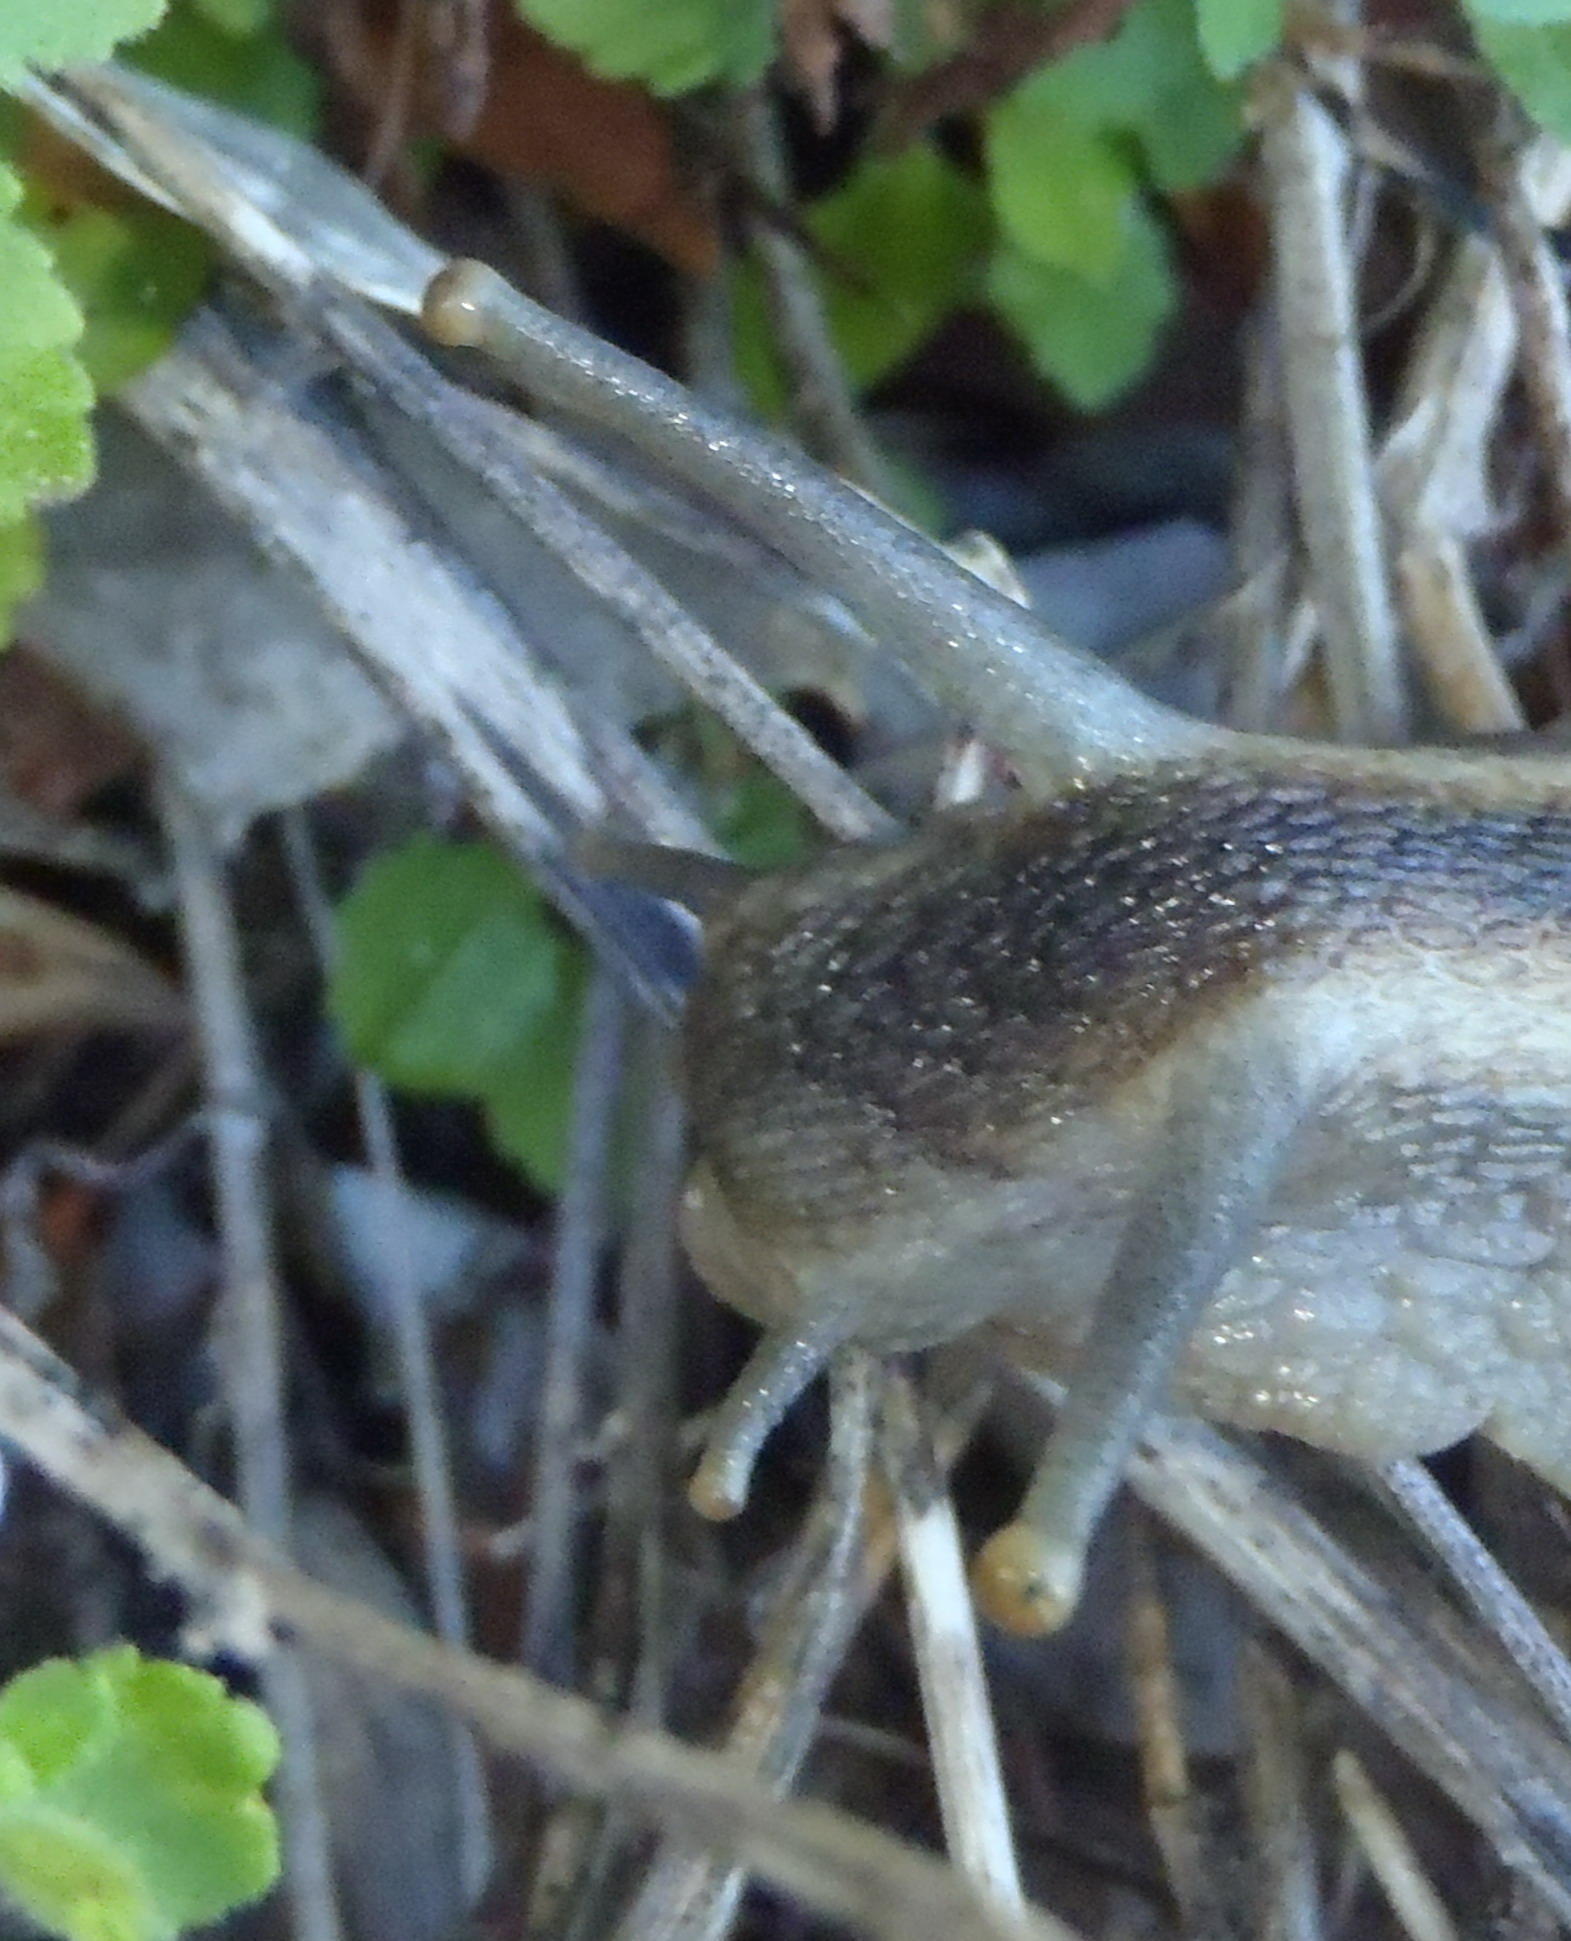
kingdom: Animalia
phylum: Mollusca
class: Gastropoda
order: Stylommatophora
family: Achatinidae
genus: Cochlitoma
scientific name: Cochlitoma zebra
